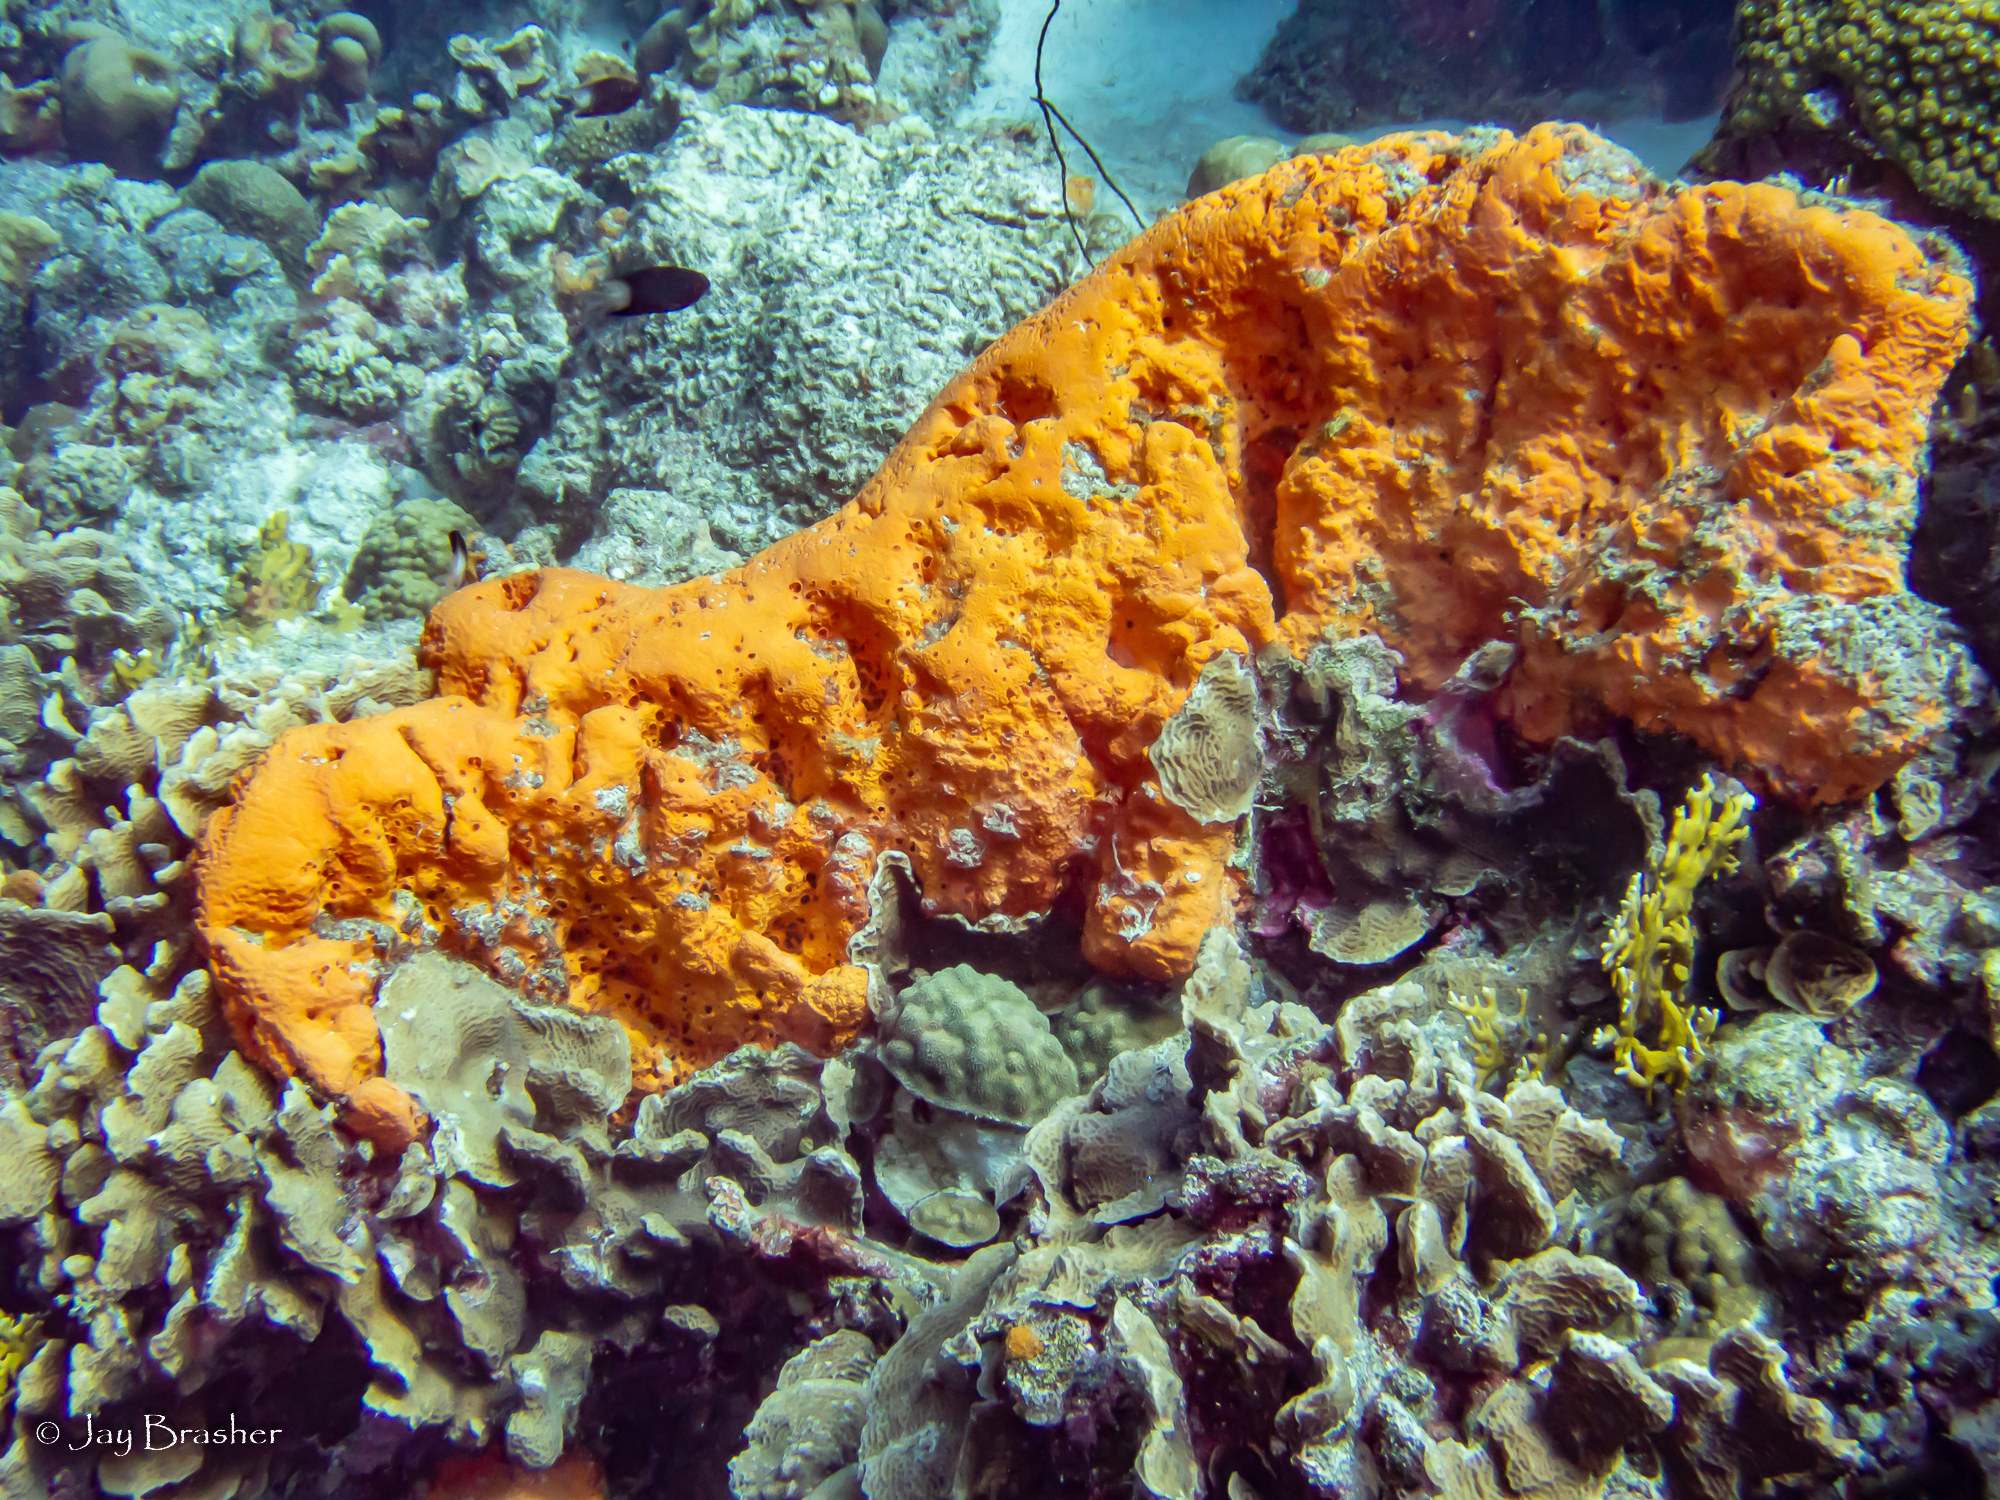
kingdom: Animalia
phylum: Cnidaria
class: Anthozoa
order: Scleractinia
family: Poritidae
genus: Porites
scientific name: Porites astreoides
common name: Mustard hill coral
